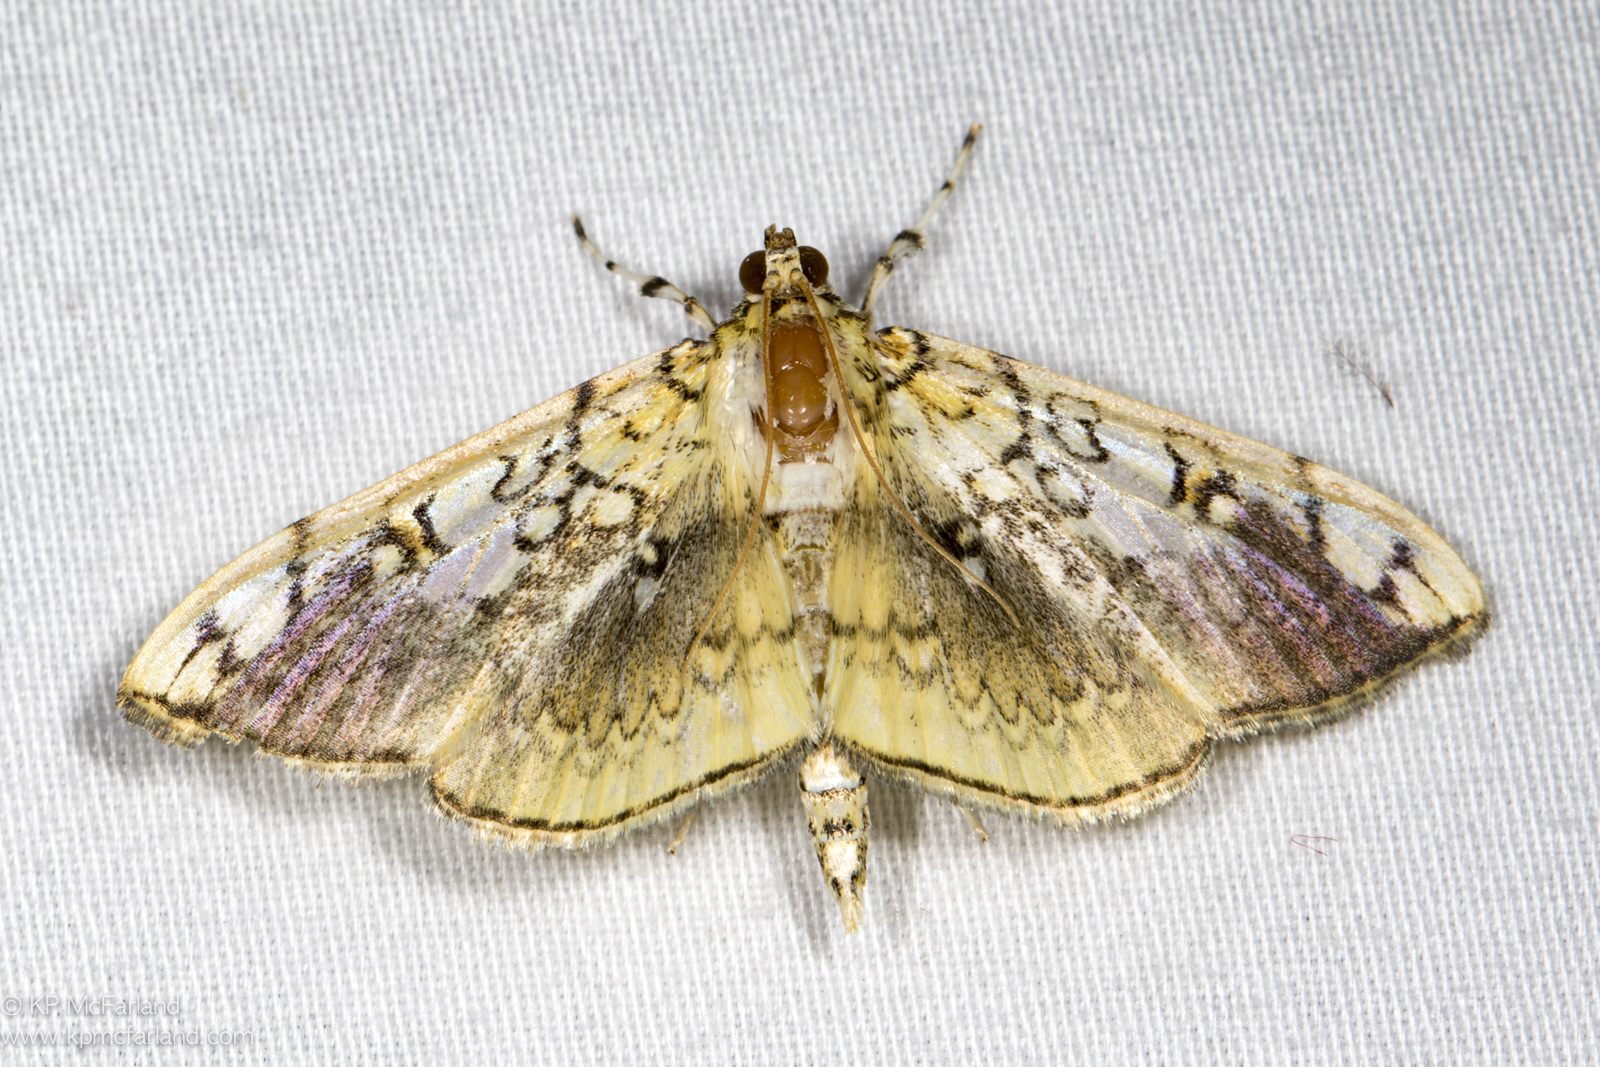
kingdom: Animalia
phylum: Arthropoda
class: Insecta
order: Lepidoptera
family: Crambidae
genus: Pantographa
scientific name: Pantographa limata
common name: Basswood leafroller moth
